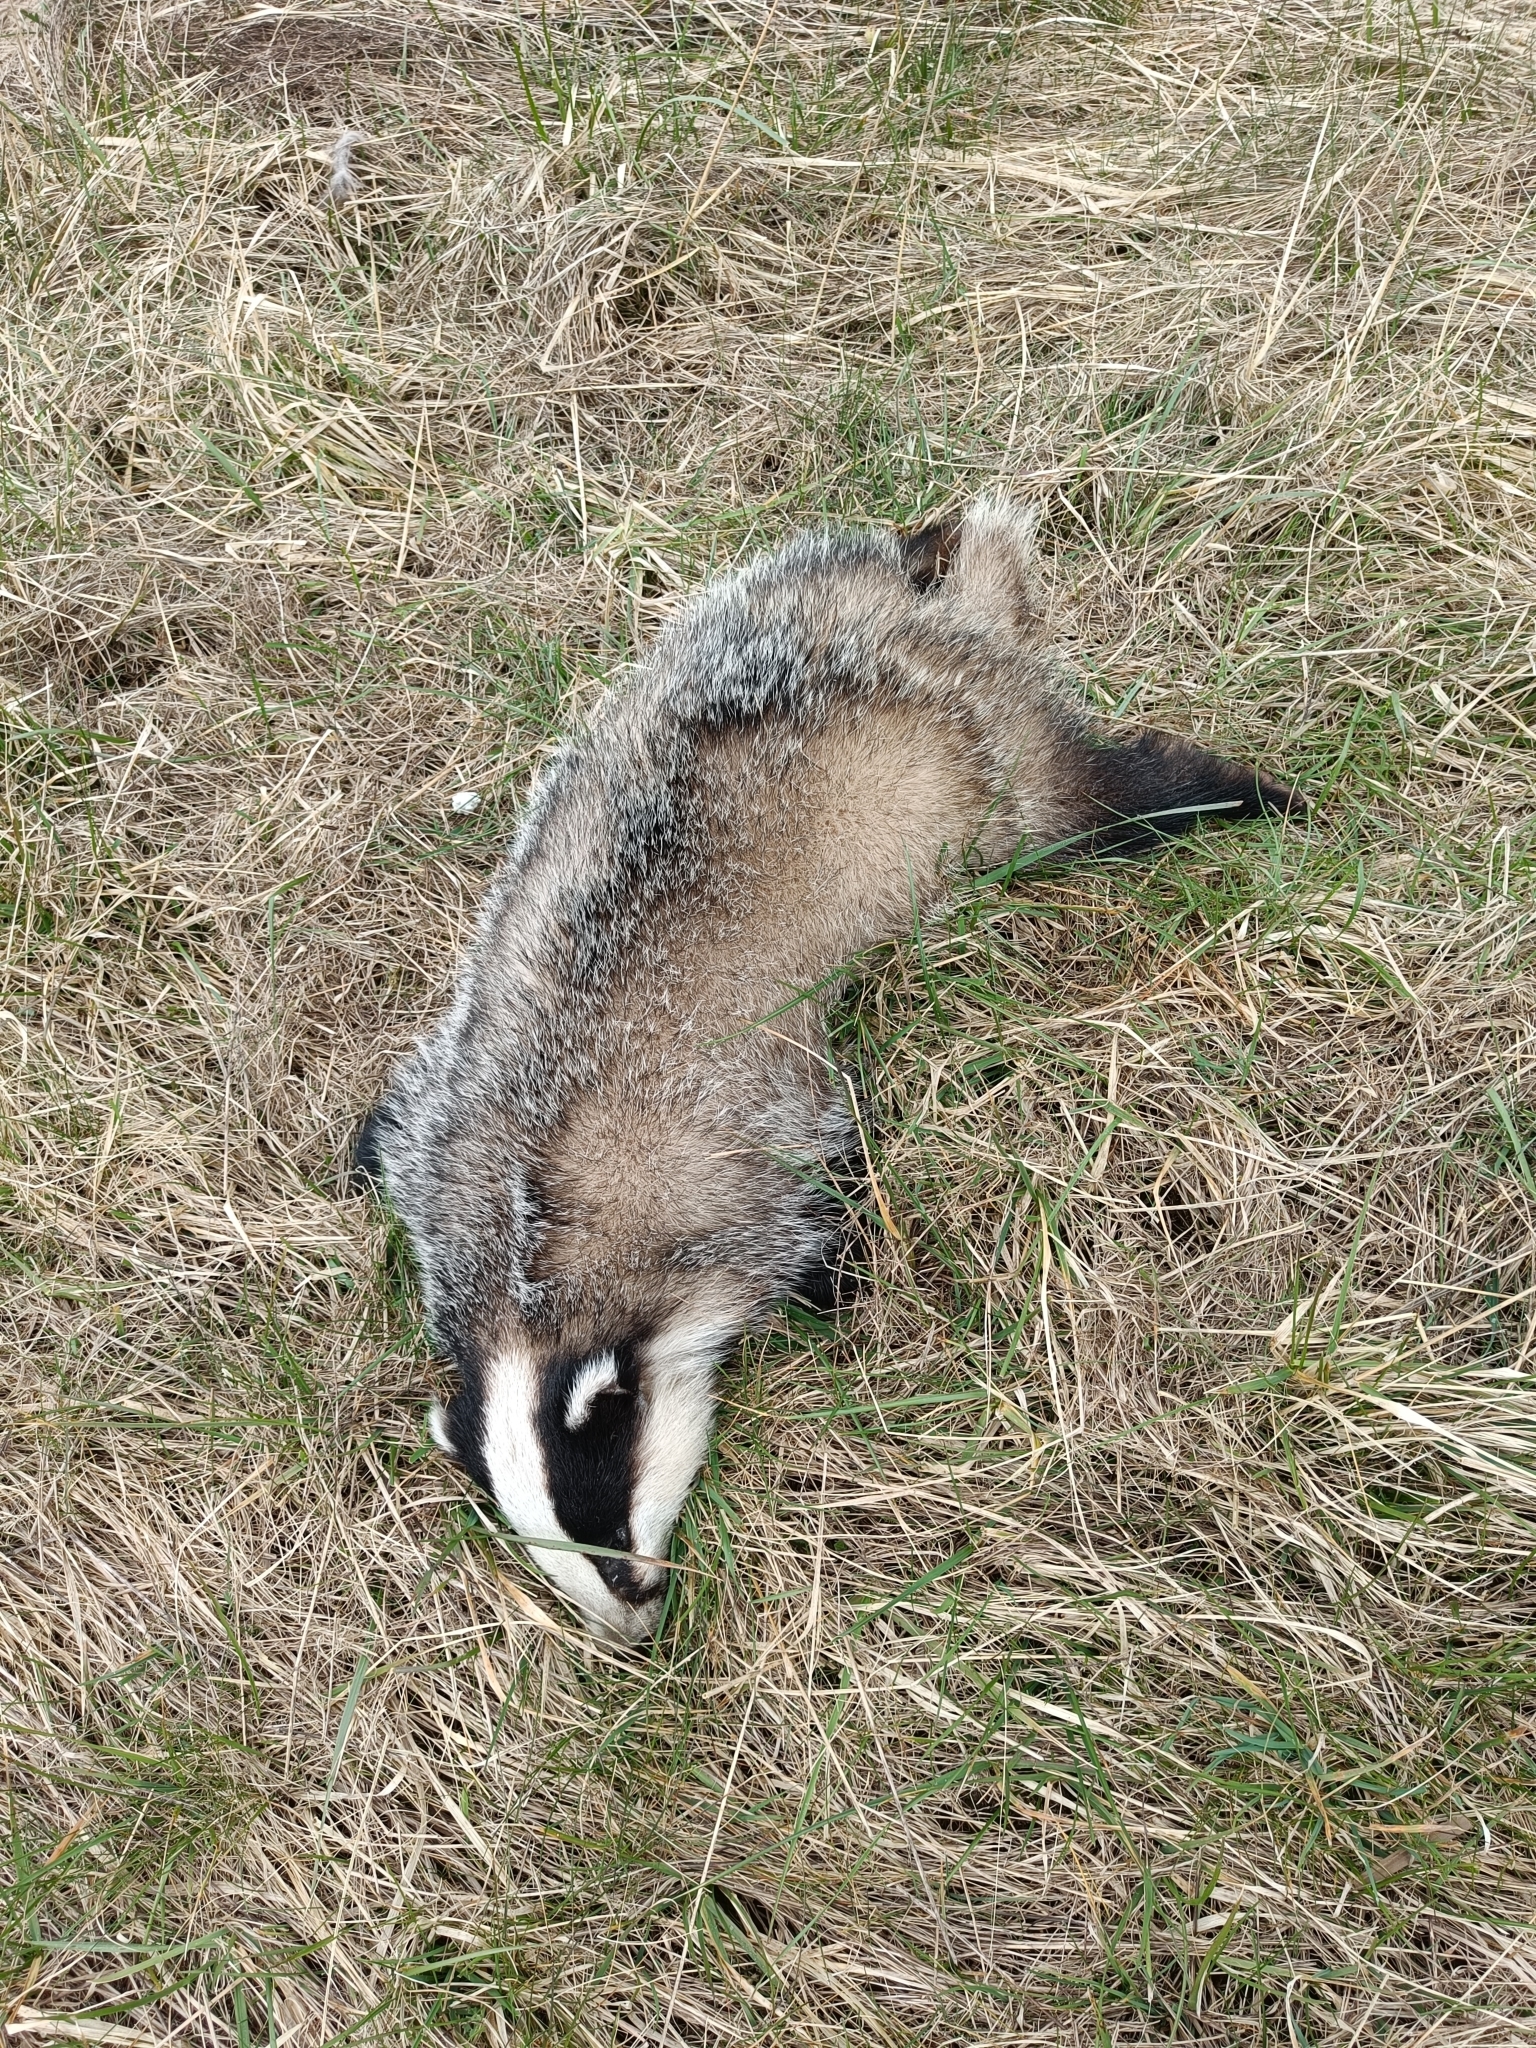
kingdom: Animalia
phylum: Chordata
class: Mammalia
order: Carnivora
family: Mustelidae
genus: Meles
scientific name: Meles meles
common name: Eurasian badger
